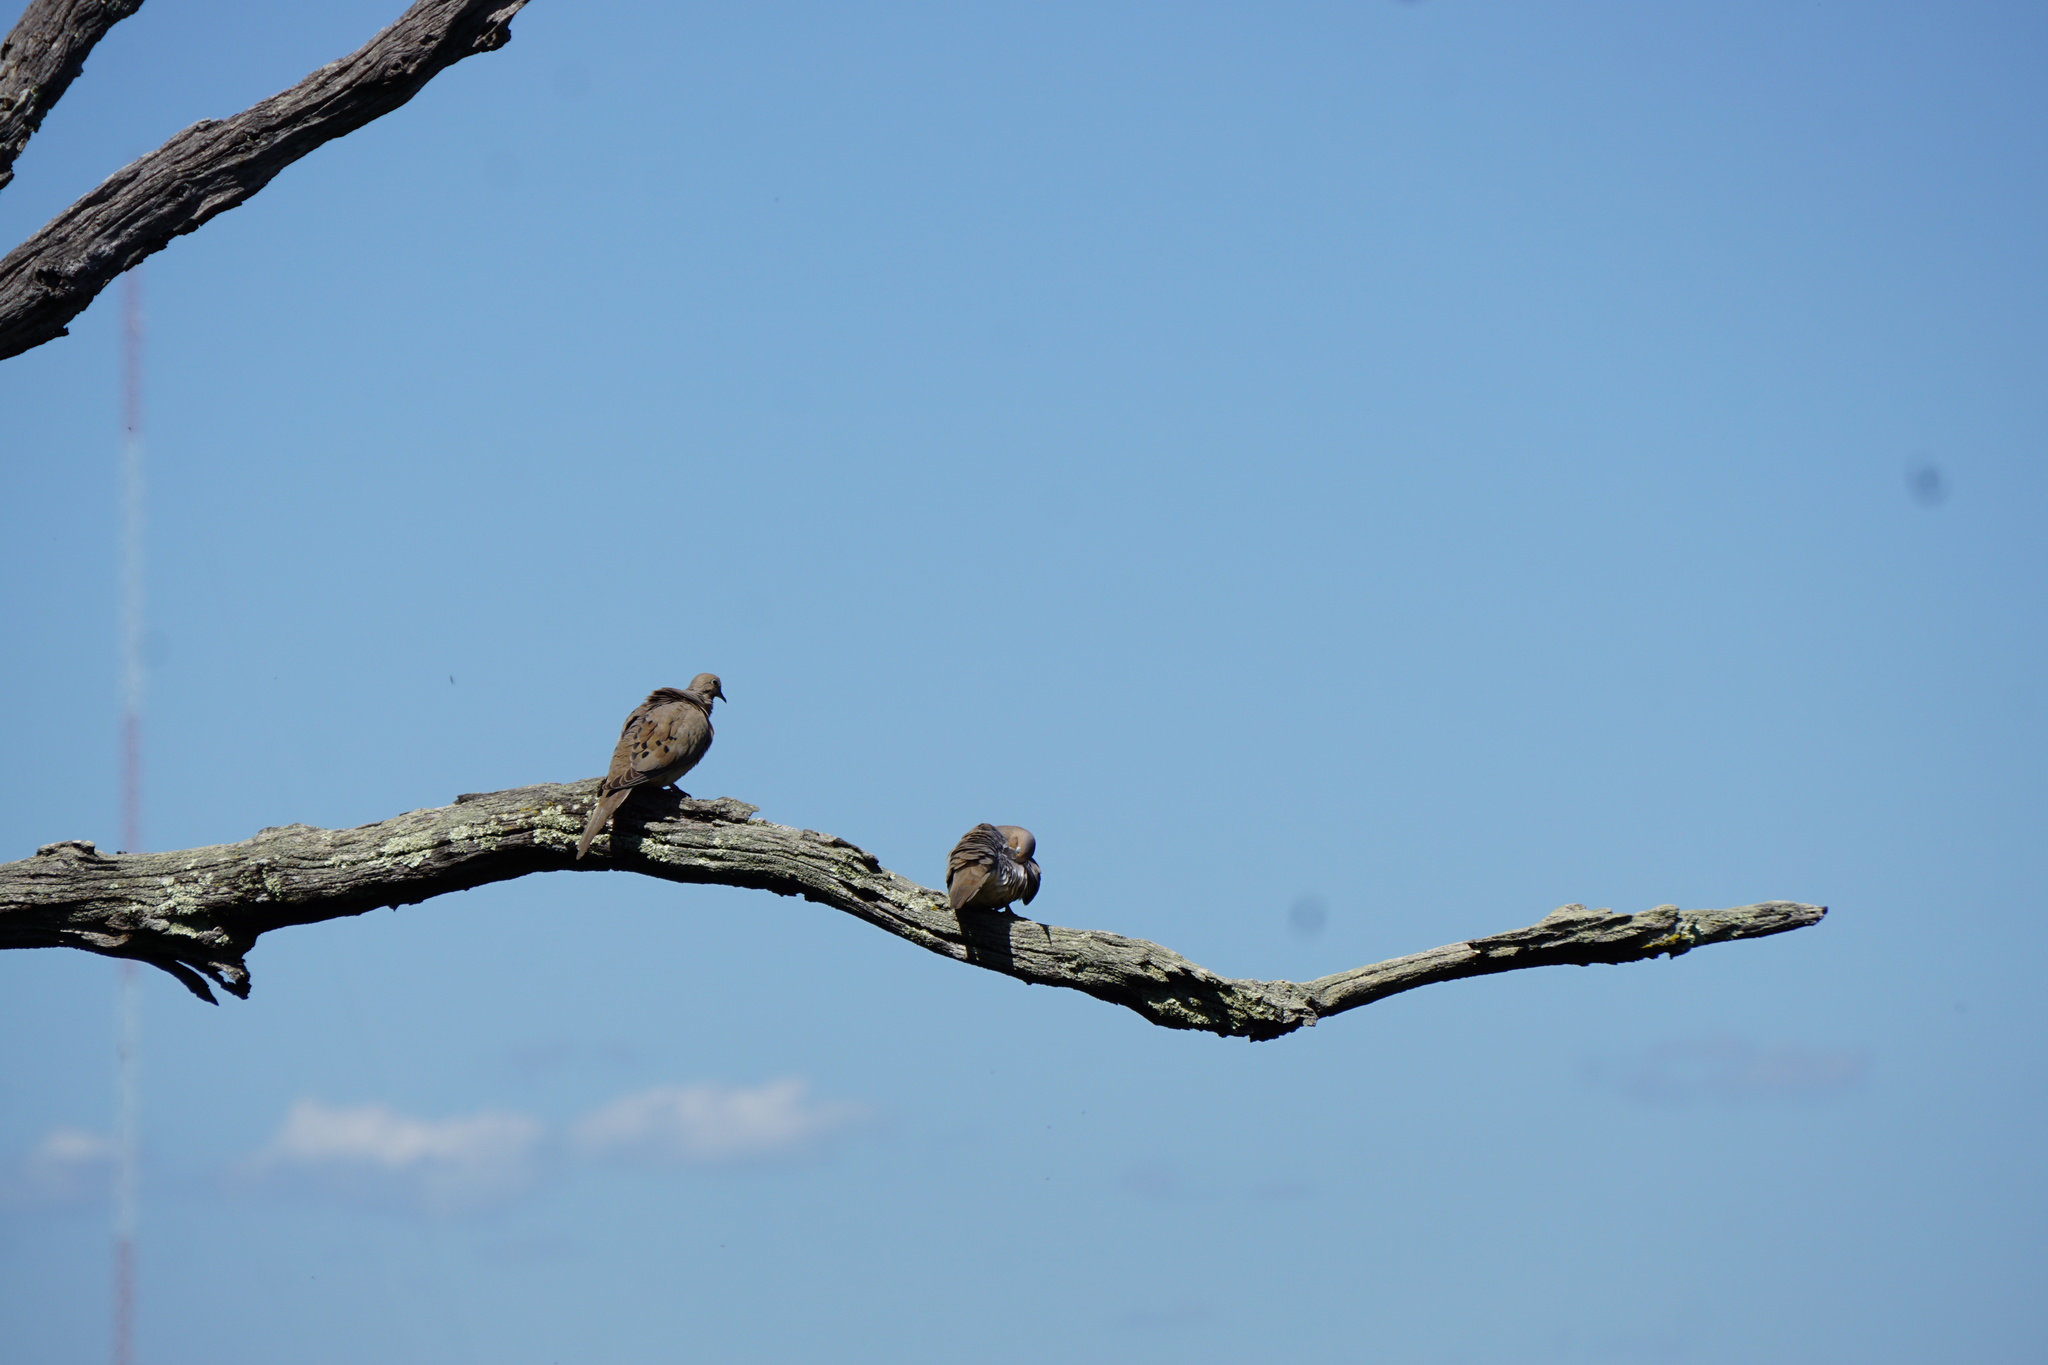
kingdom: Animalia
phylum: Chordata
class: Aves
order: Columbiformes
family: Columbidae
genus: Zenaida
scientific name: Zenaida macroura
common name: Mourning dove
